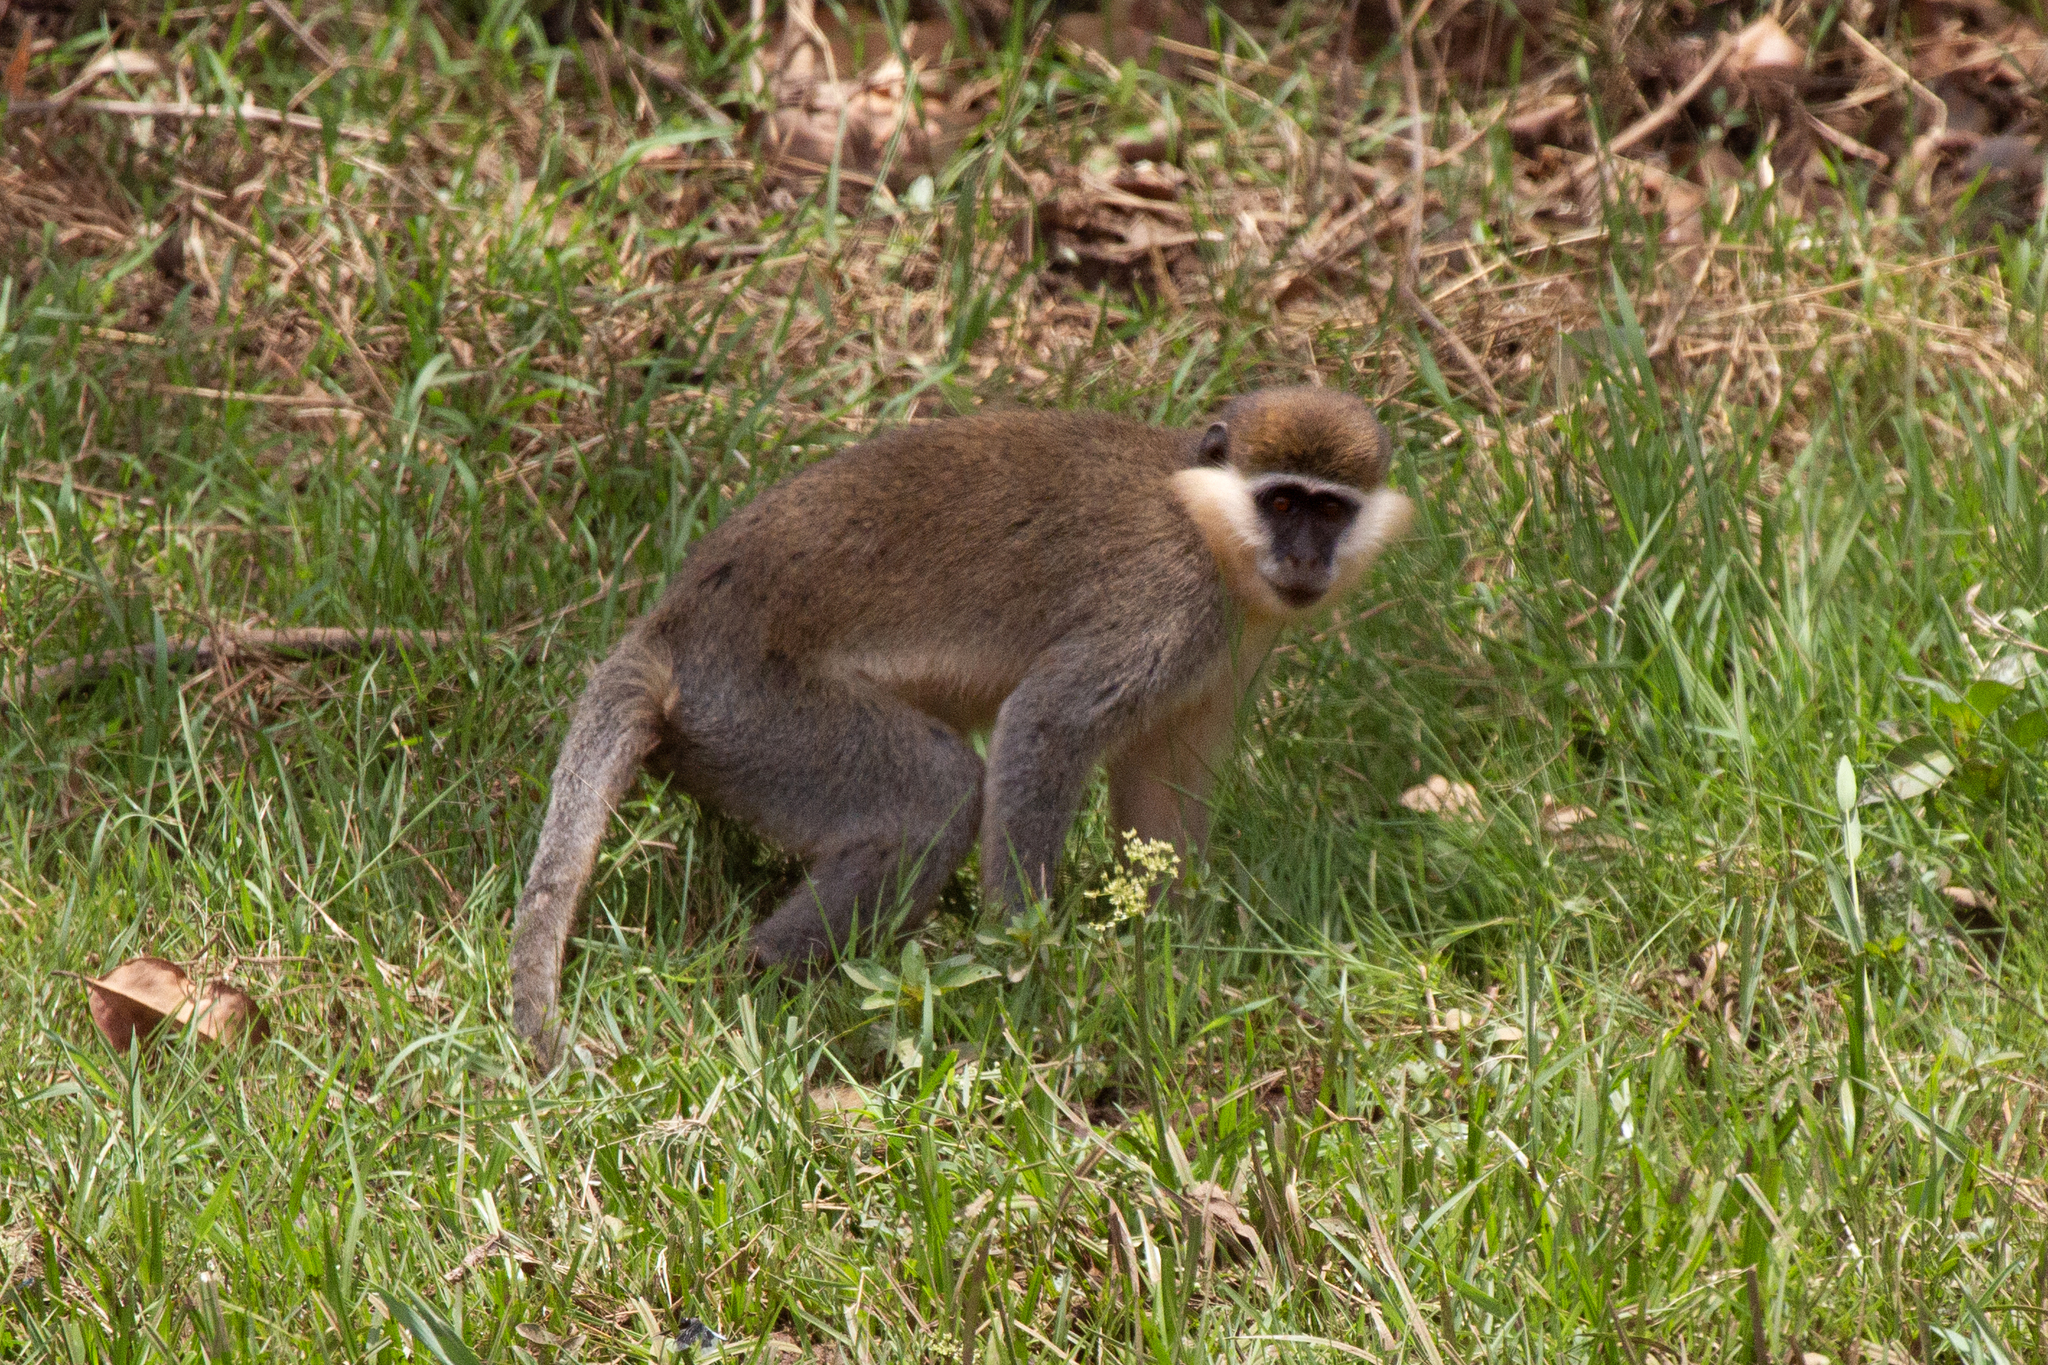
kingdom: Animalia
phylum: Chordata
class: Mammalia
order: Primates
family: Cercopithecidae
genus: Chlorocebus
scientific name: Chlorocebus aethiops
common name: Grivet
